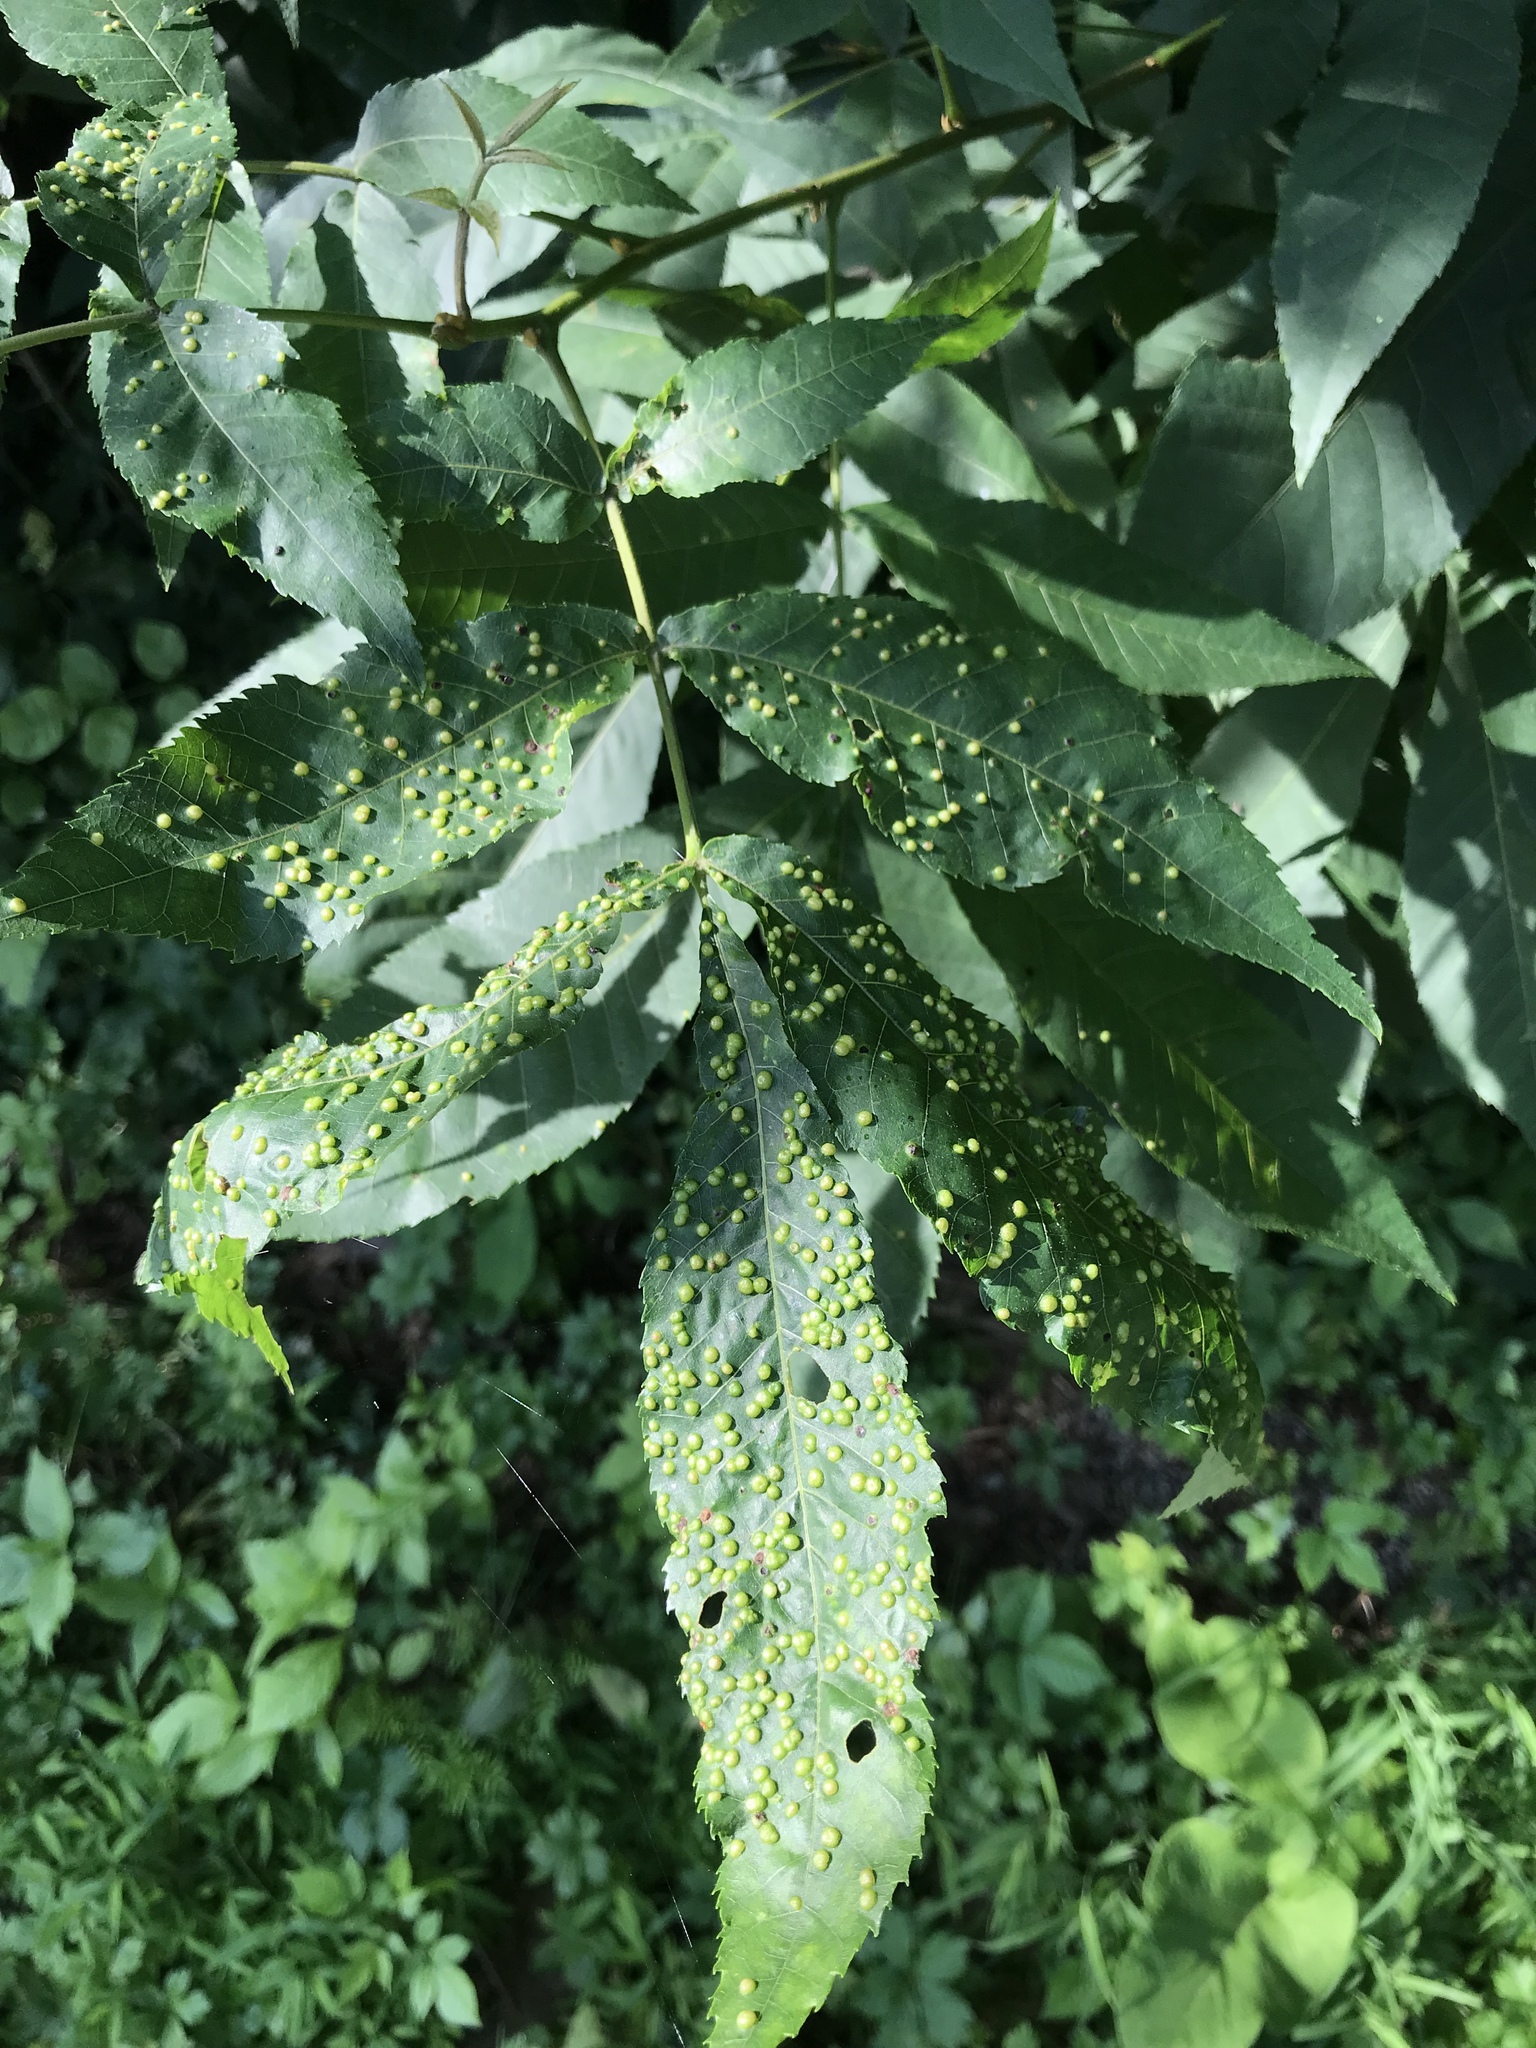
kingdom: Plantae
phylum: Tracheophyta
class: Magnoliopsida
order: Fagales
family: Juglandaceae
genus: Carya
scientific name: Carya cordiformis
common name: Bitternut hickory
